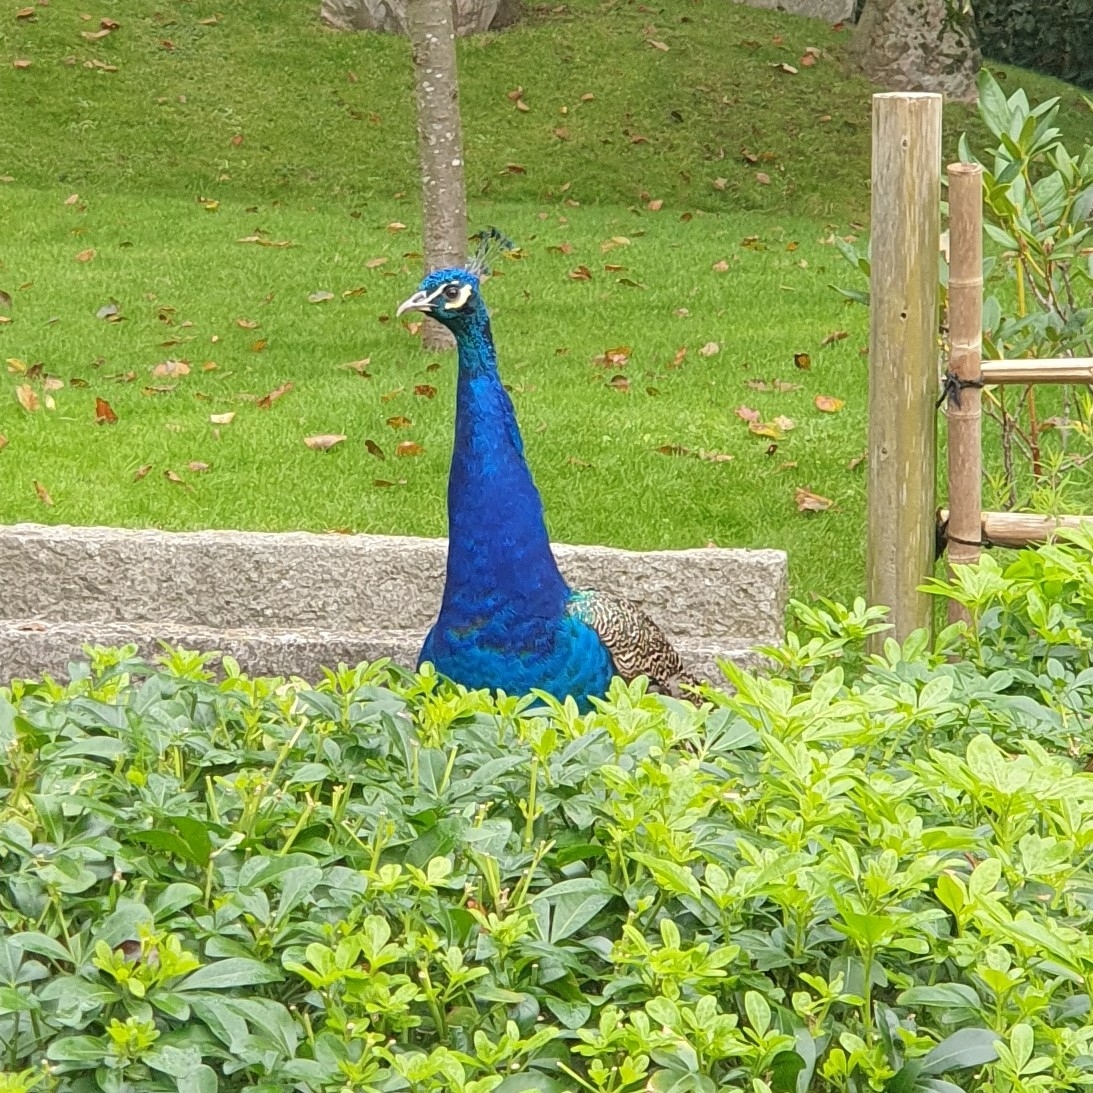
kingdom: Animalia
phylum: Chordata
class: Aves
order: Galliformes
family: Phasianidae
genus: Pavo
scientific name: Pavo cristatus
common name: Indian peafowl
